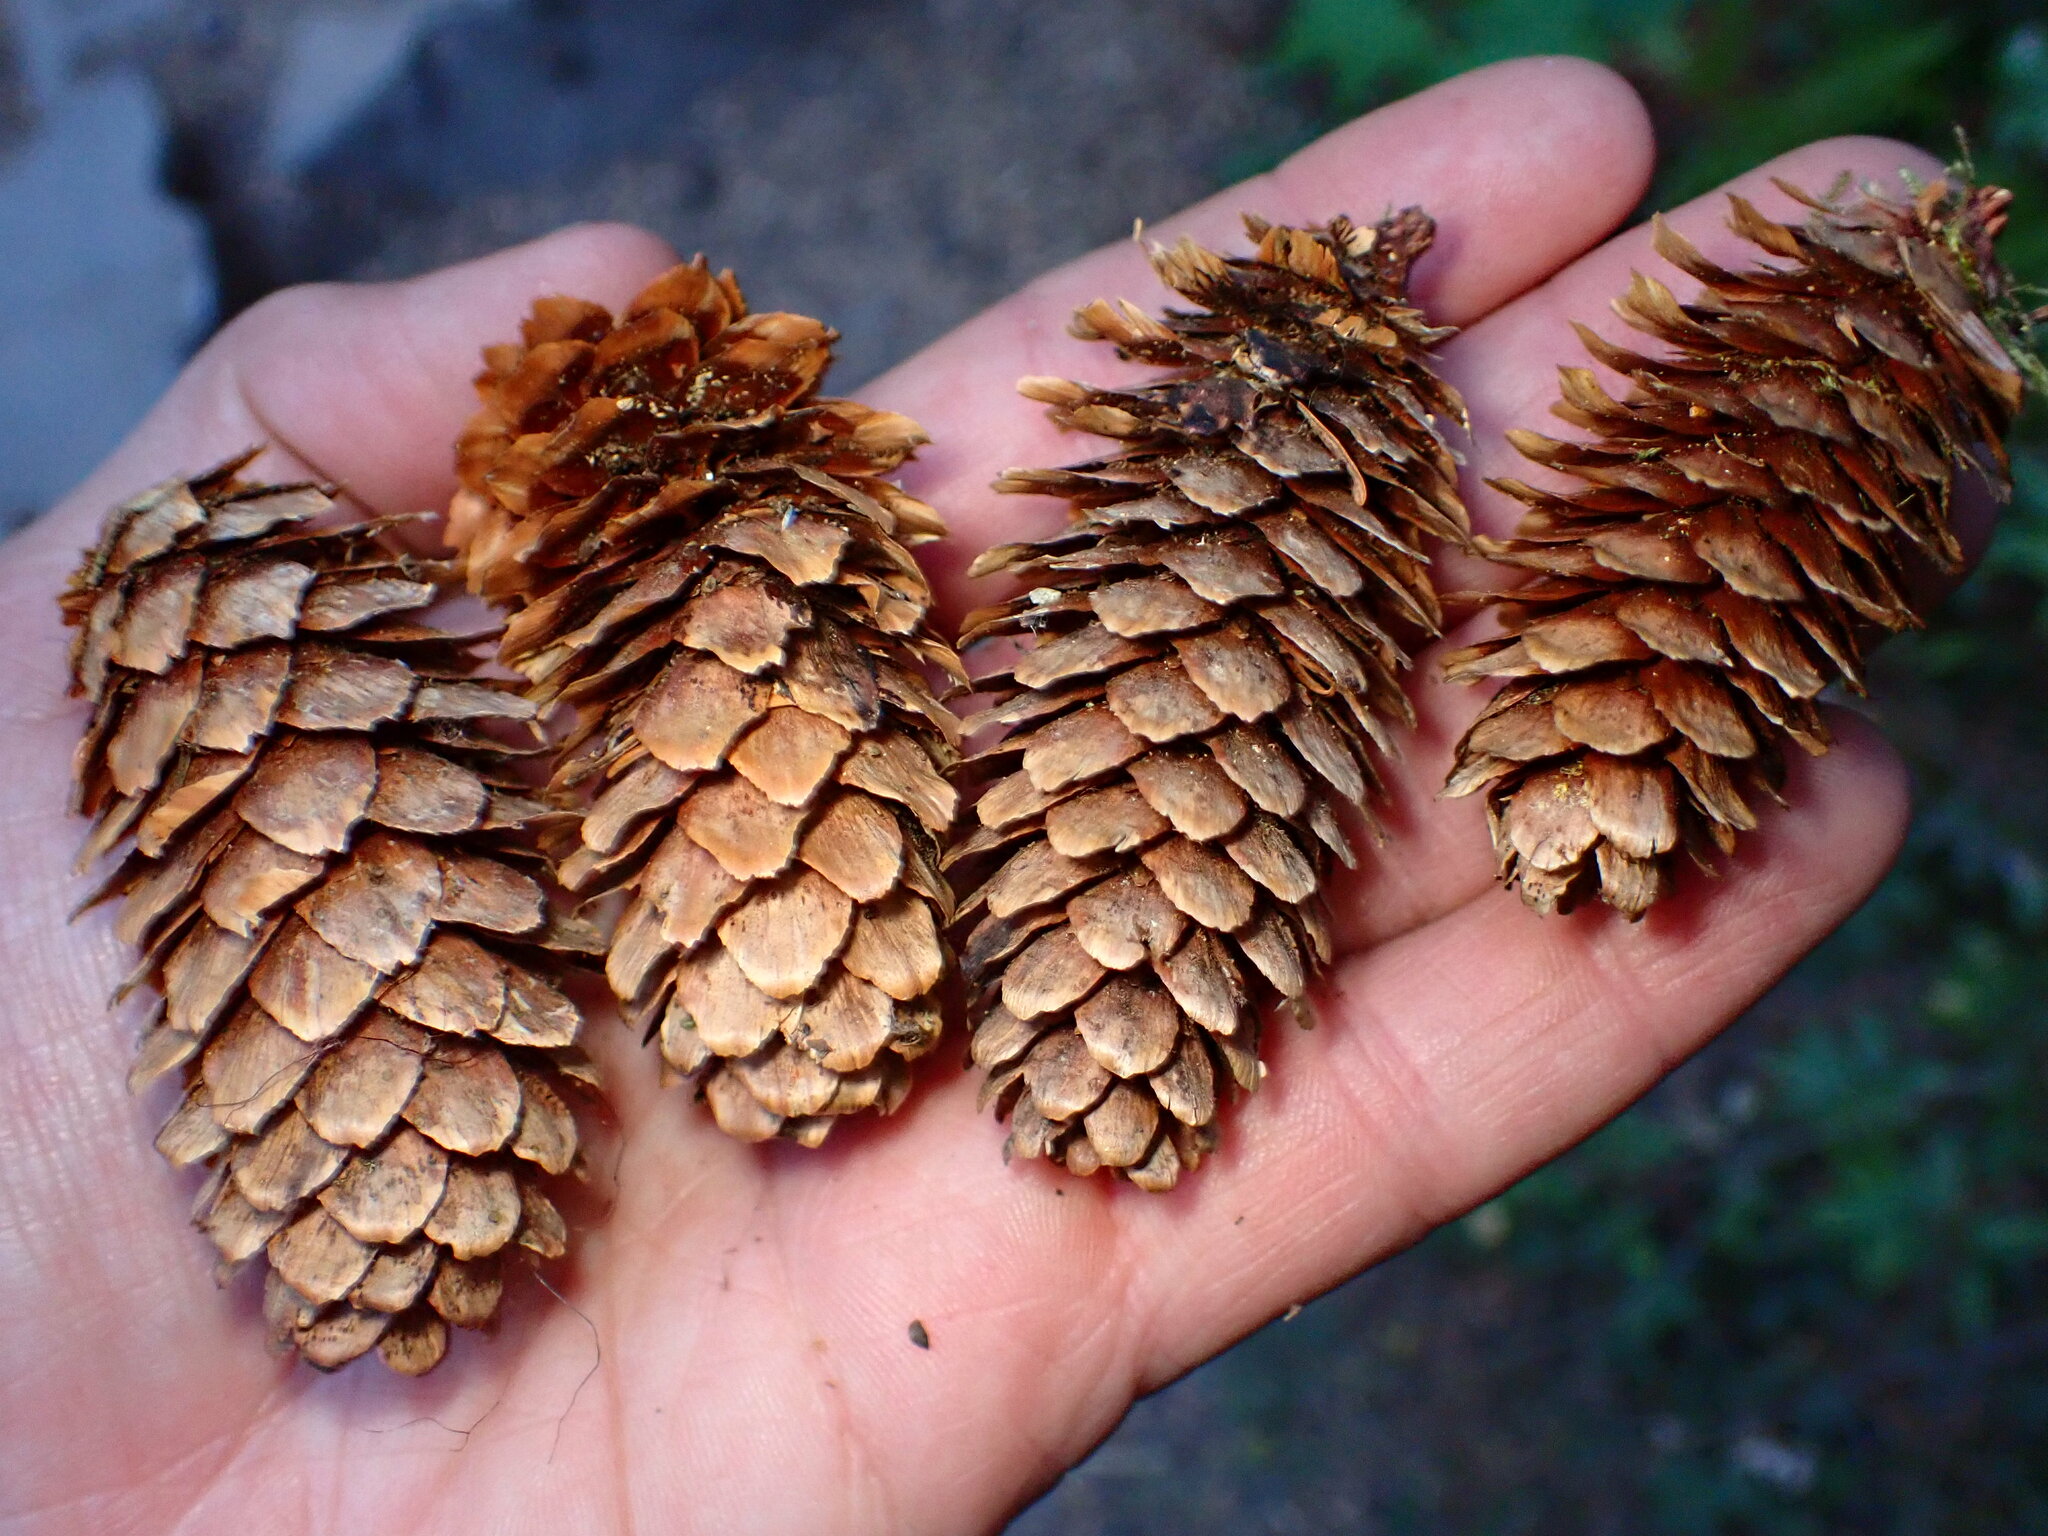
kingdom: Plantae
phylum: Tracheophyta
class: Pinopsida
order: Pinales
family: Pinaceae
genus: Picea
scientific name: Picea sitchensis
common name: Sitka spruce
